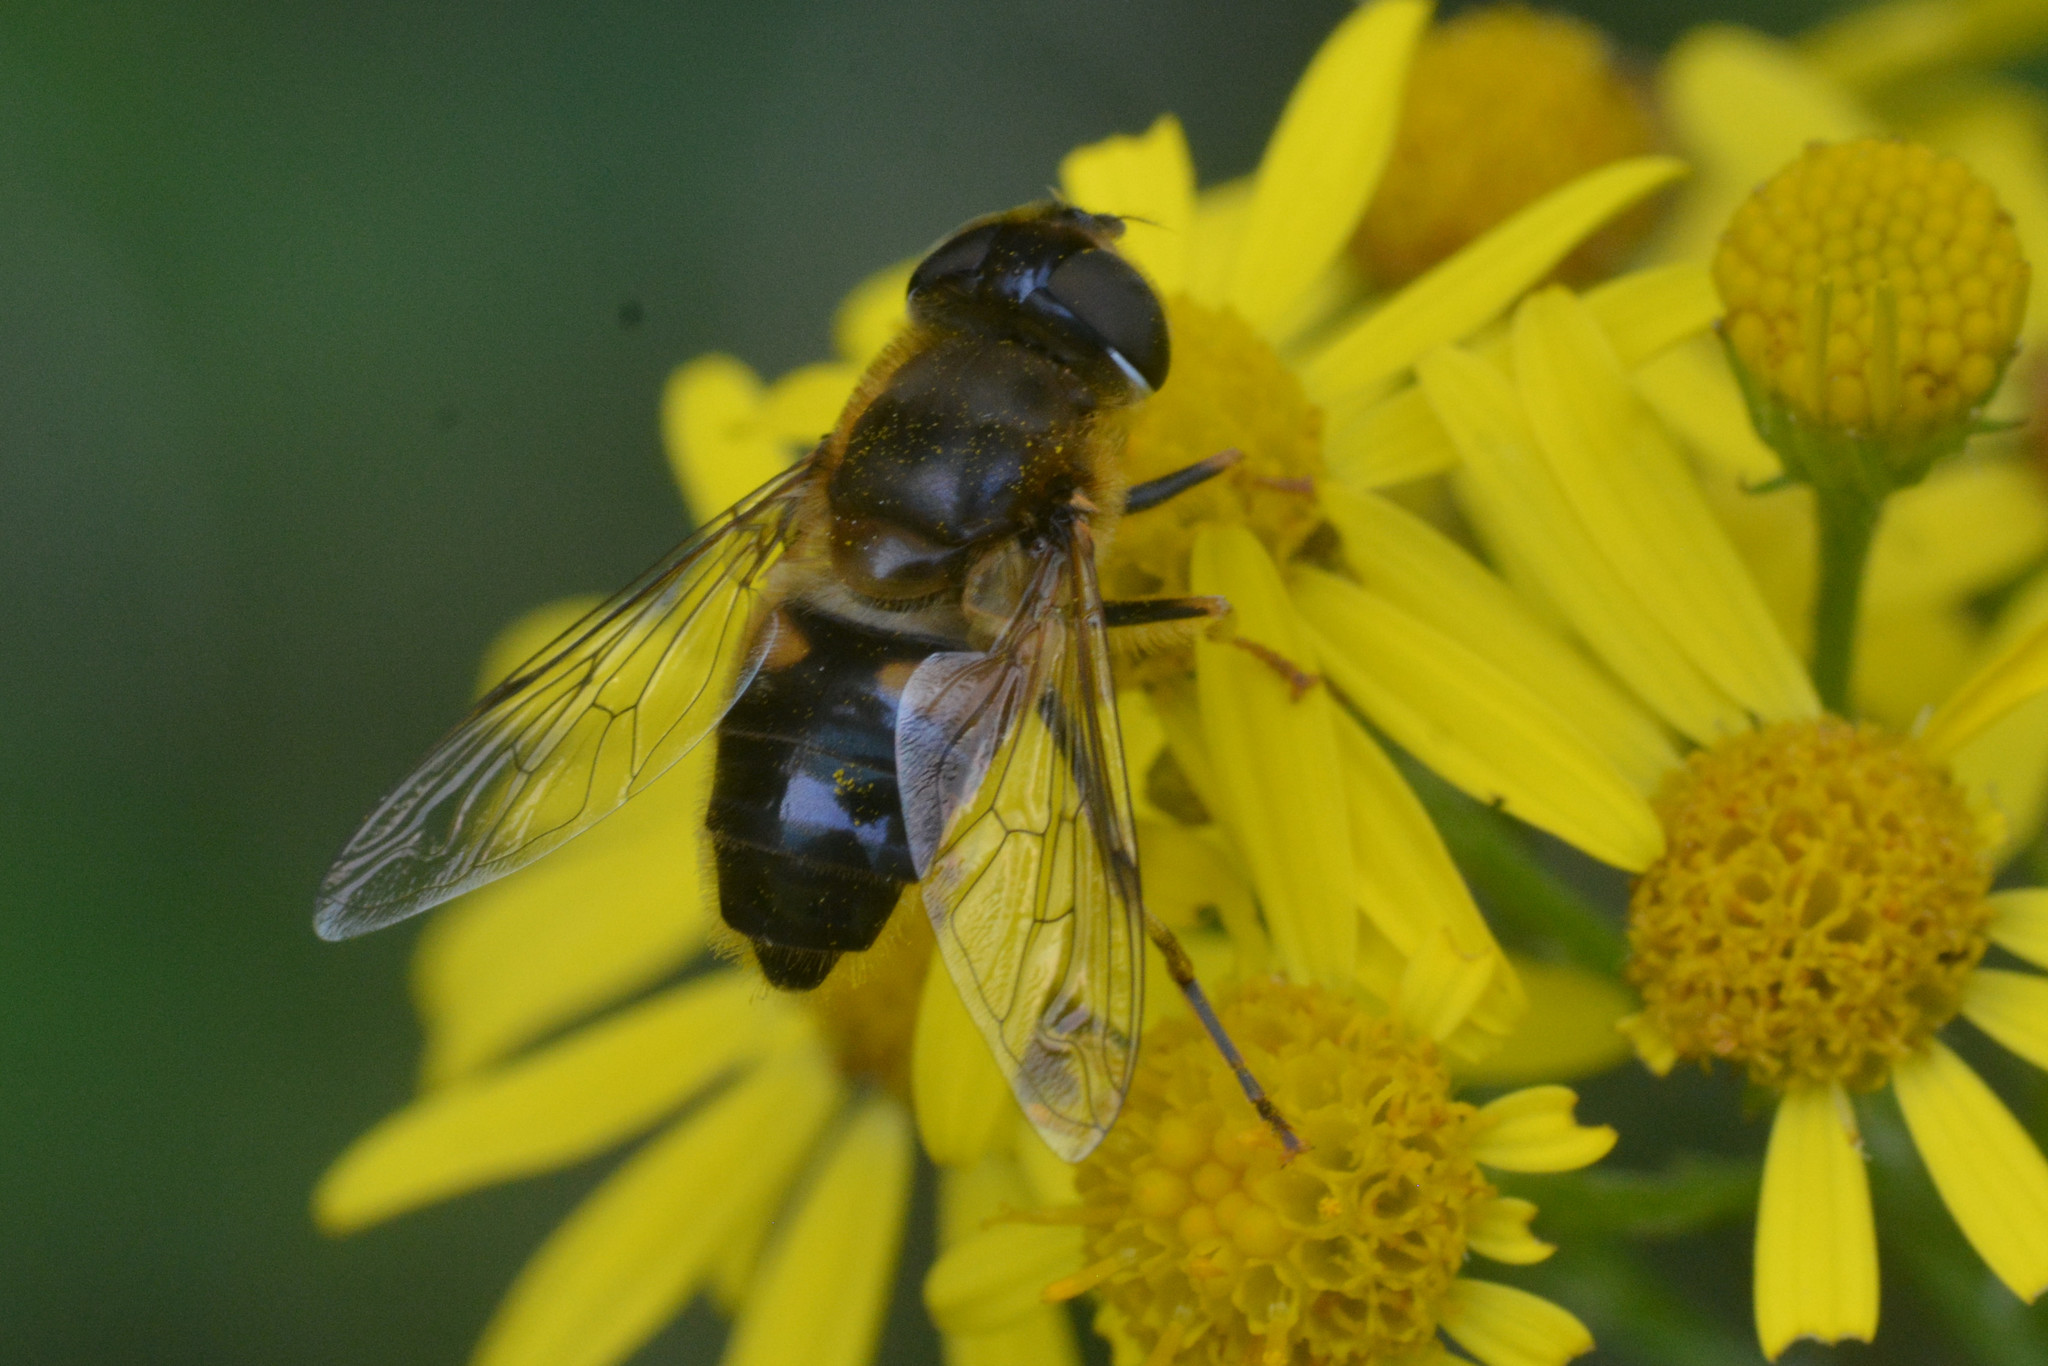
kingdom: Animalia
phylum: Arthropoda
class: Insecta
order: Diptera
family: Syrphidae
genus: Eristalis
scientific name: Eristalis pertinax
